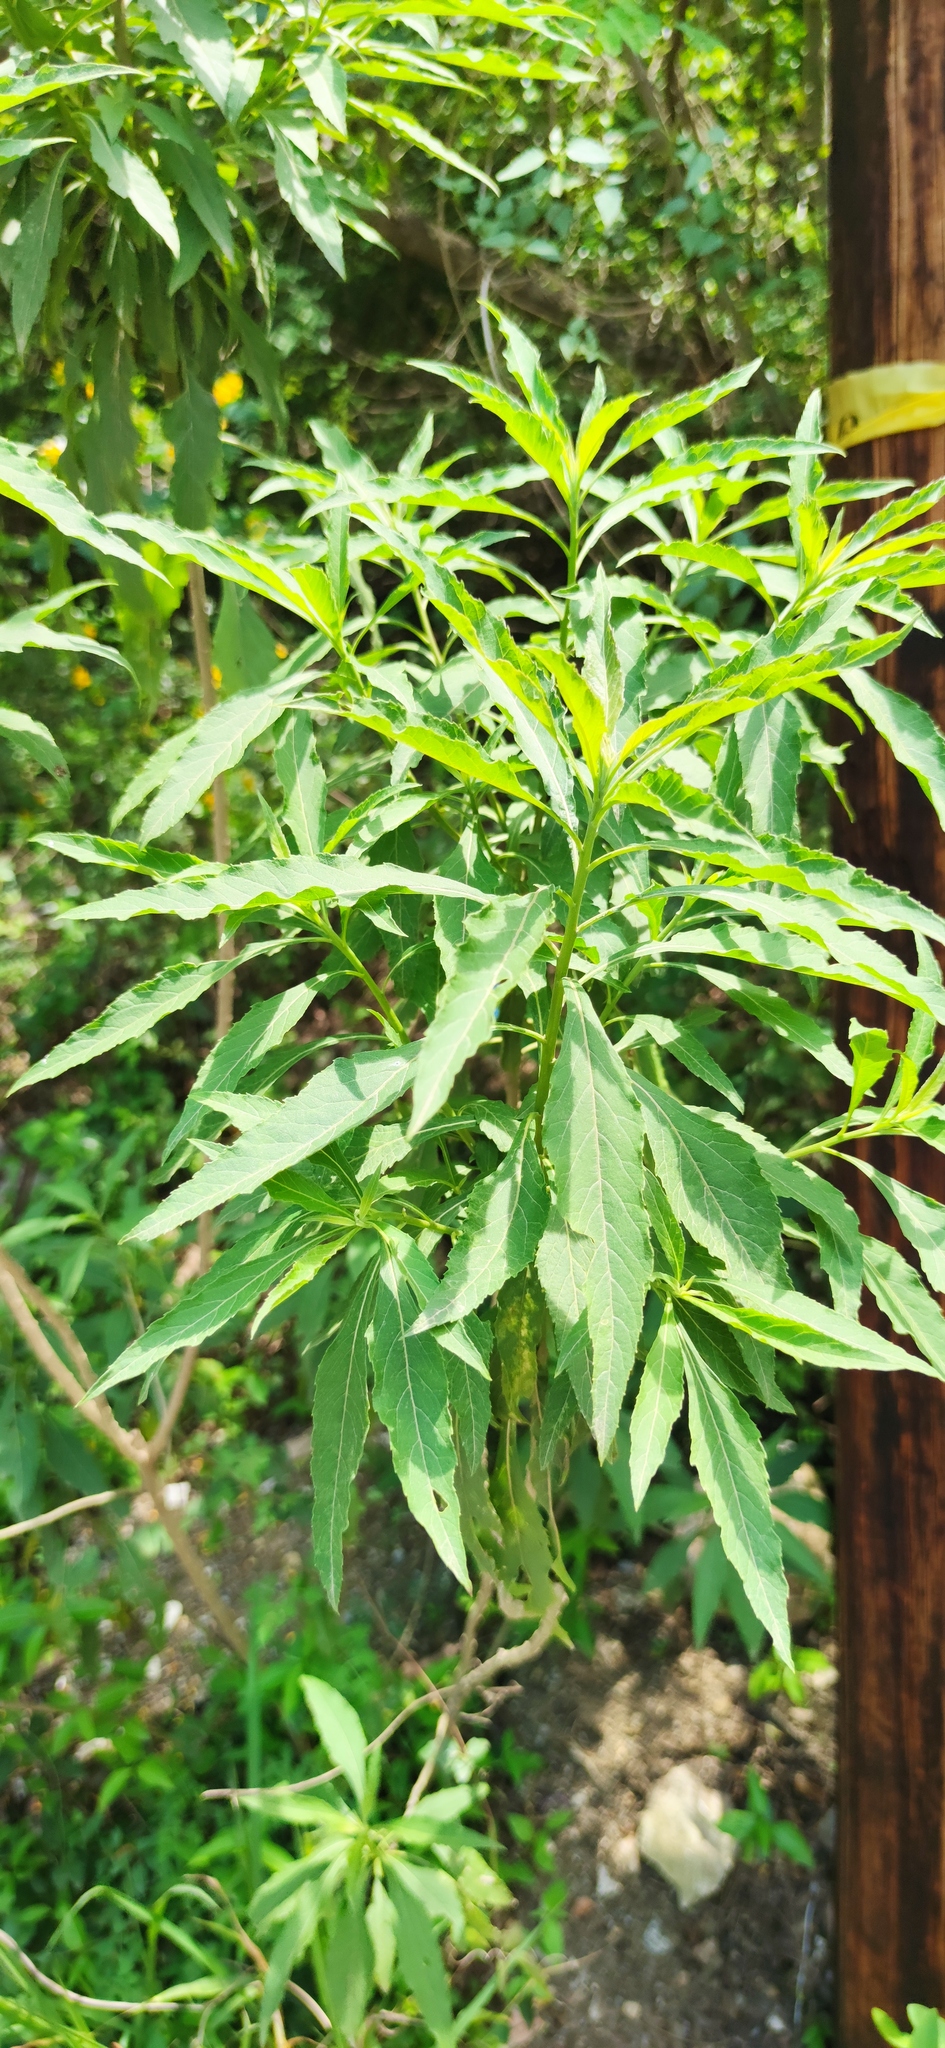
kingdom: Plantae
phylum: Tracheophyta
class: Magnoliopsida
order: Asterales
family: Asteraceae
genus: Verbesina
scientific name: Verbesina persicifolia
